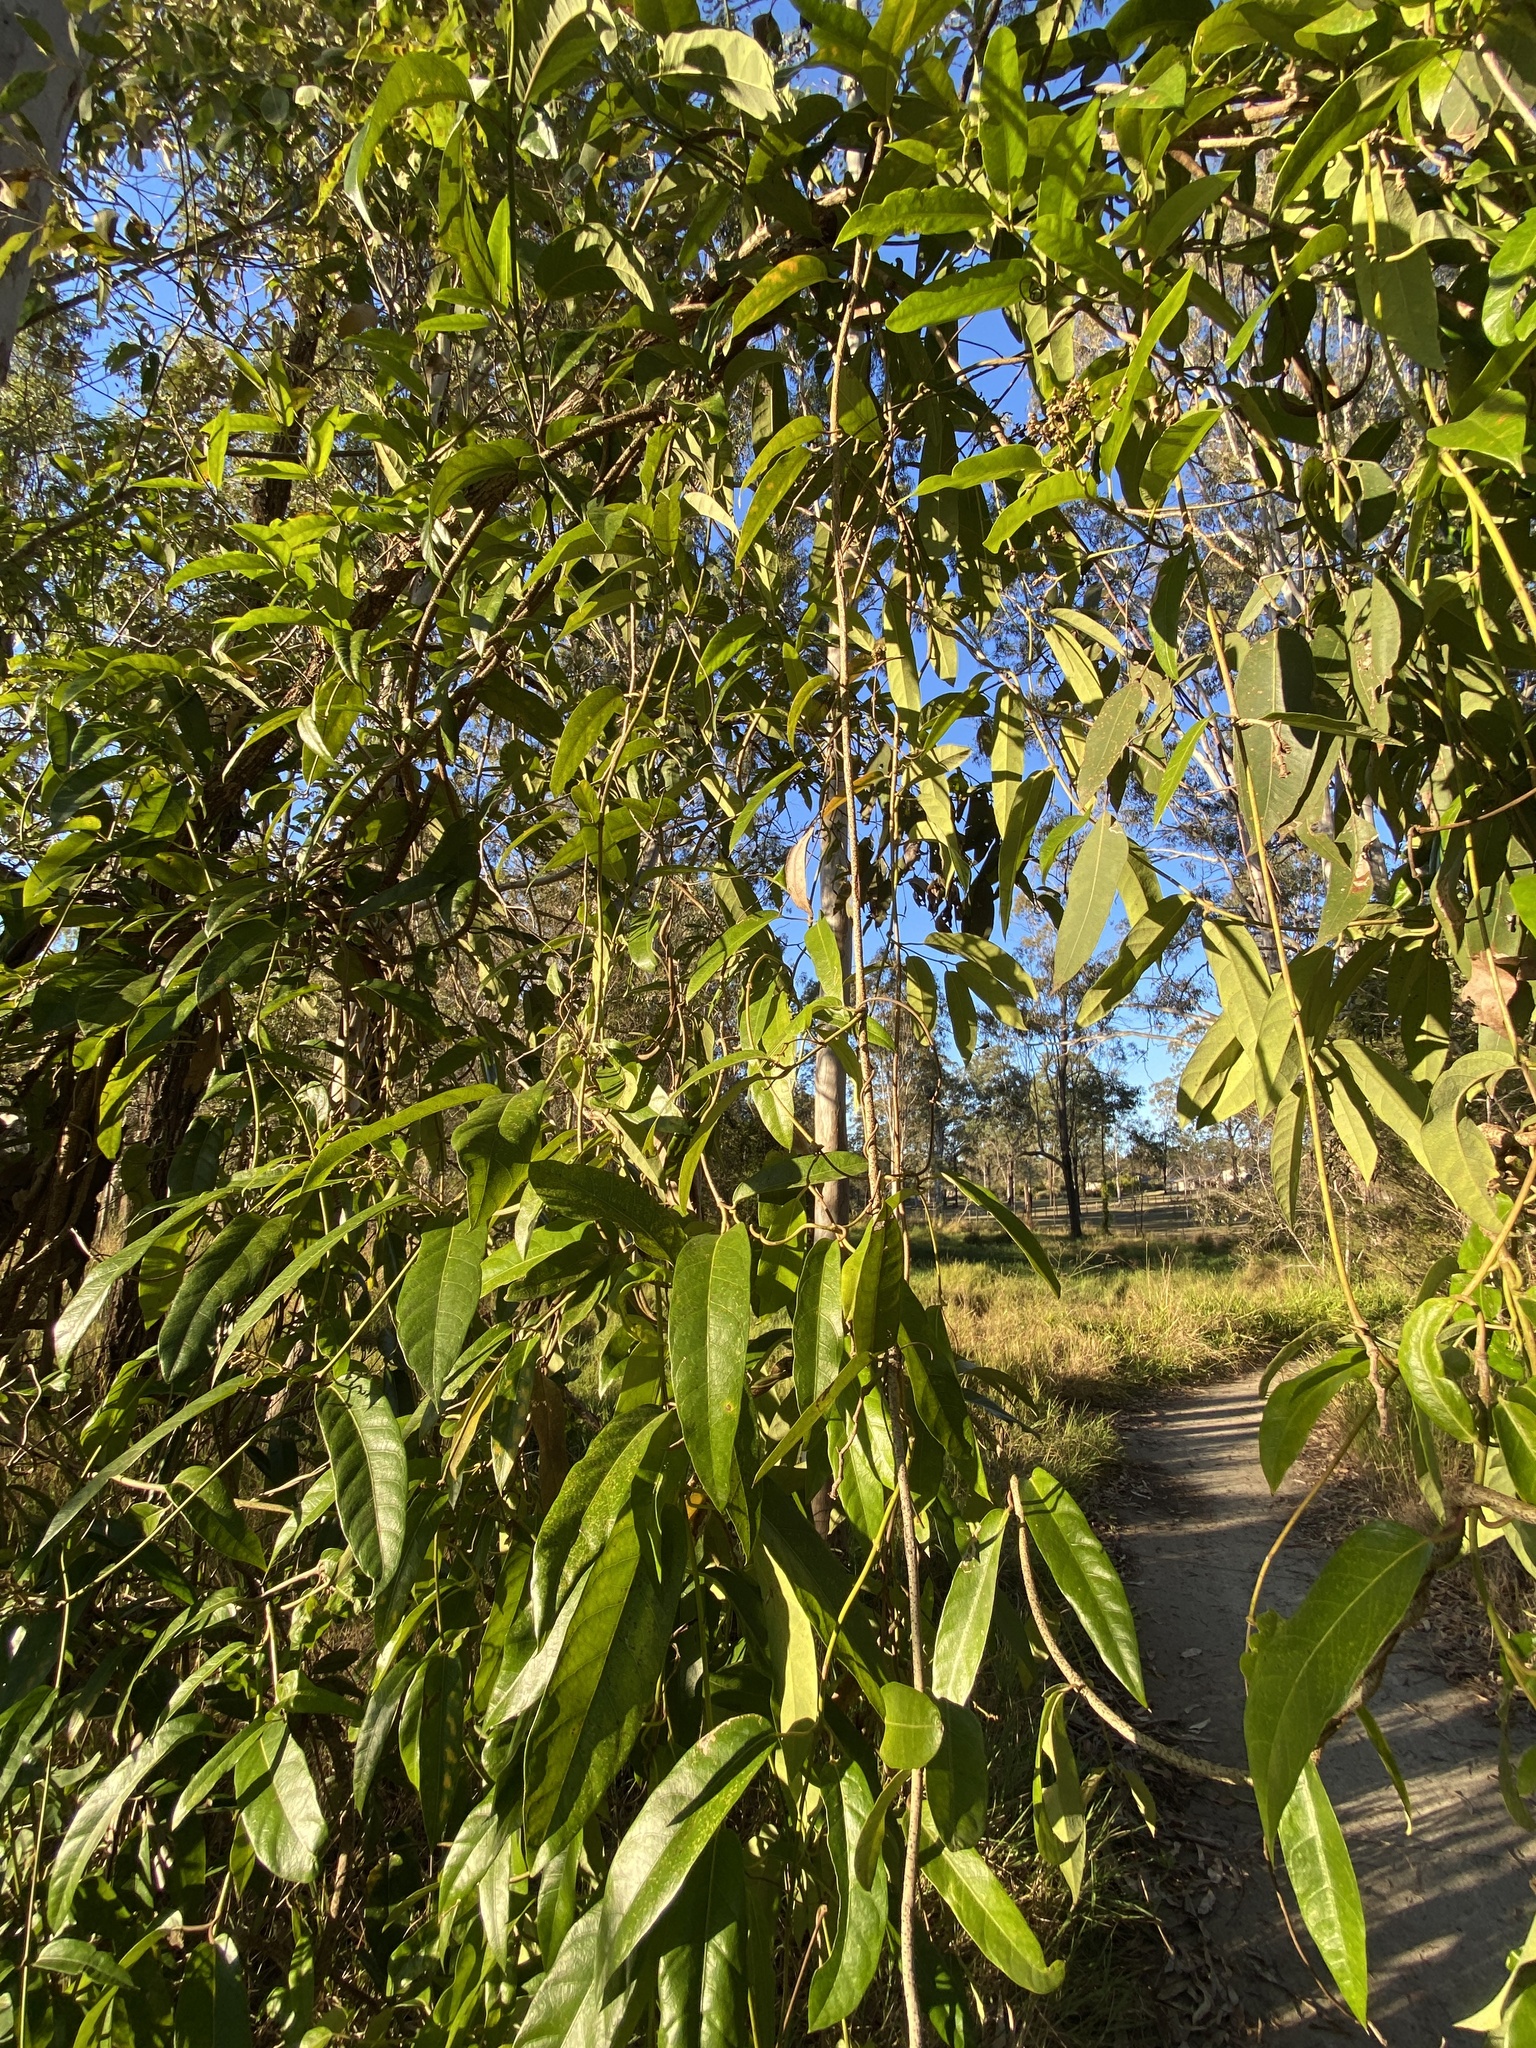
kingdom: Plantae
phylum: Tracheophyta
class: Magnoliopsida
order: Gentianales
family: Apocynaceae
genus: Parsonsia
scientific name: Parsonsia straminea
